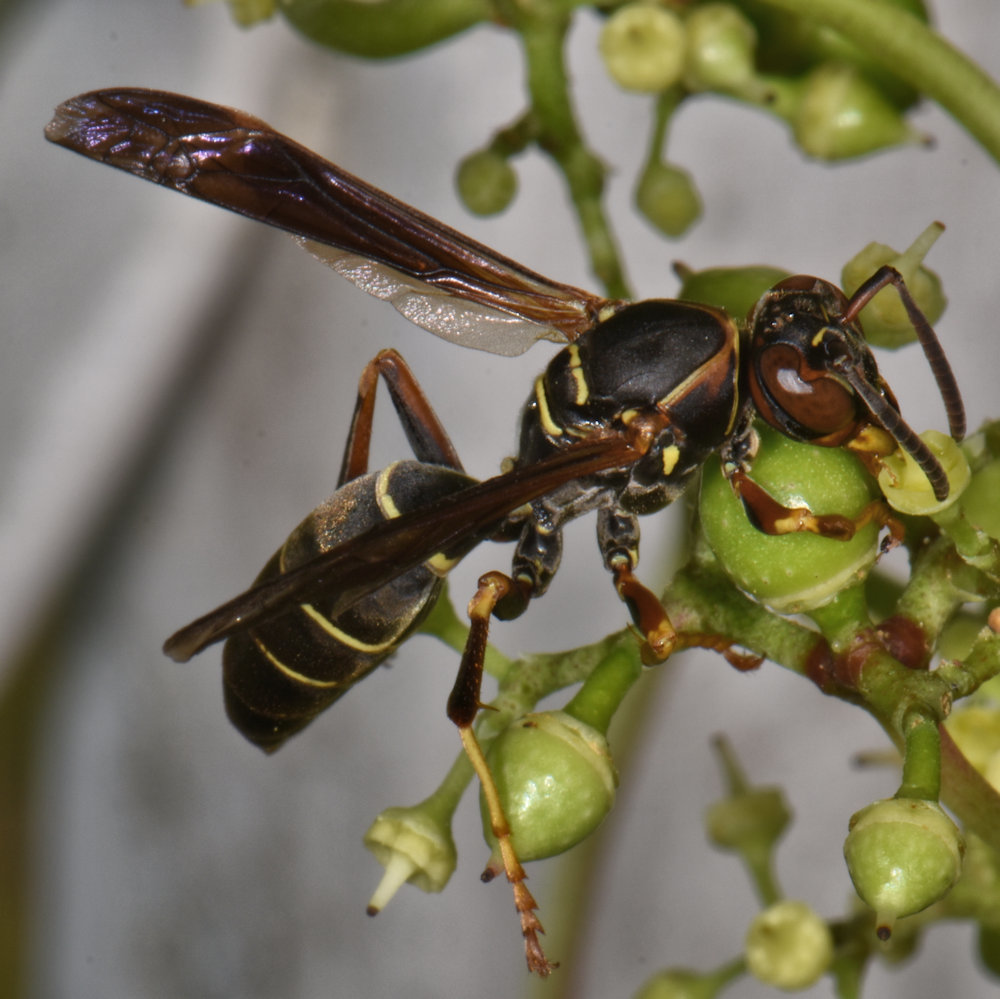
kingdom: Animalia
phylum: Arthropoda
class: Insecta
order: Hymenoptera
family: Eumenidae
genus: Polistes
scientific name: Polistes fuscatus
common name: Dark paper wasp
